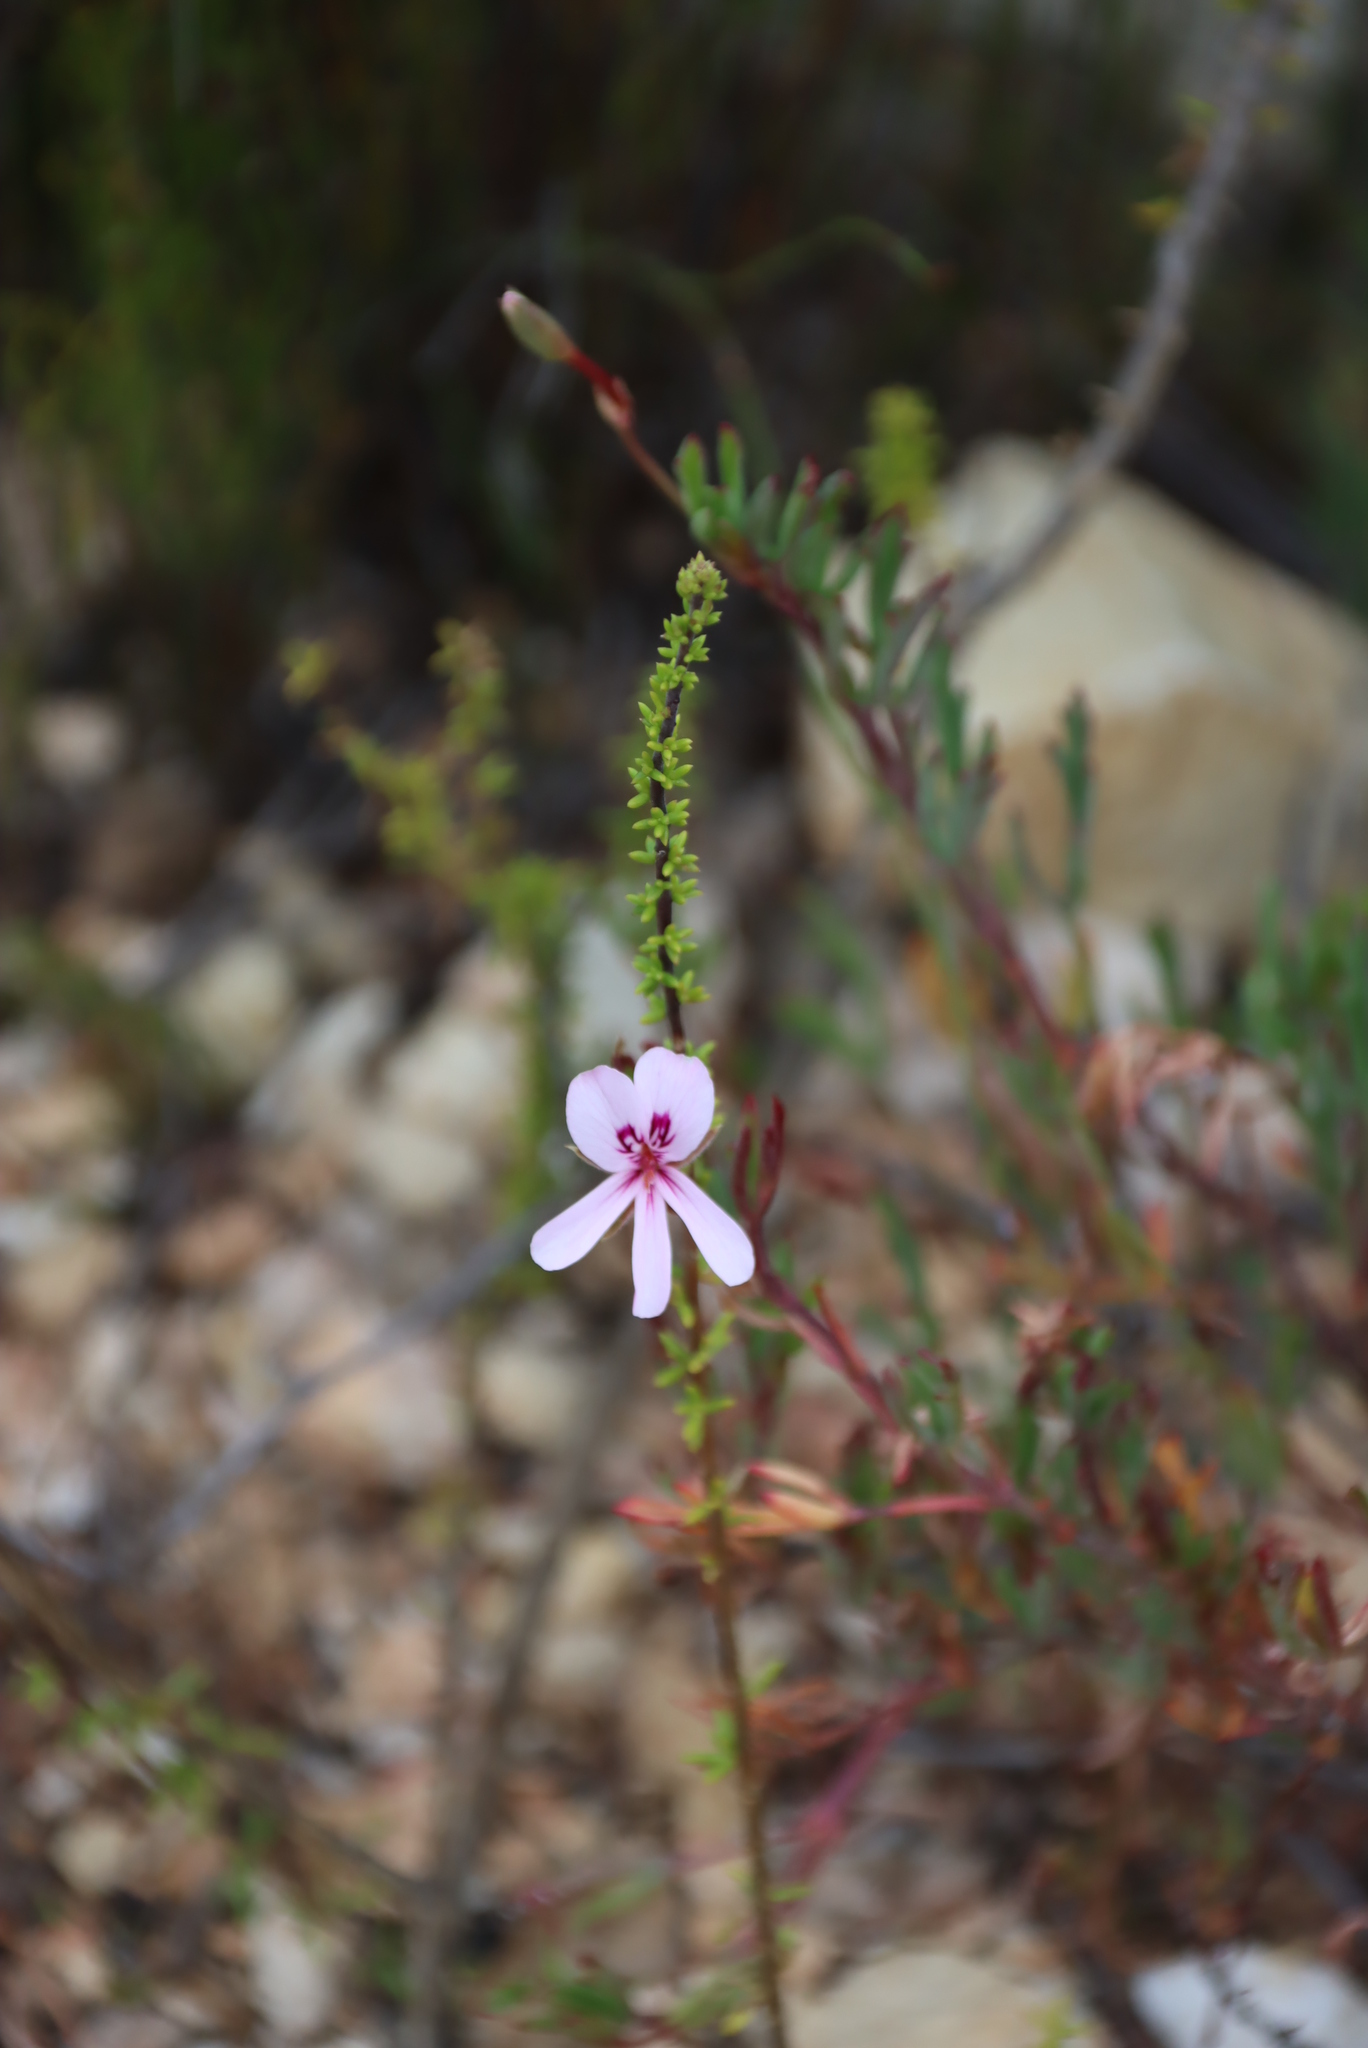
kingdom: Plantae
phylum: Tracheophyta
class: Magnoliopsida
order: Geraniales
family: Geraniaceae
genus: Pelargonium
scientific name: Pelargonium laevigatum
